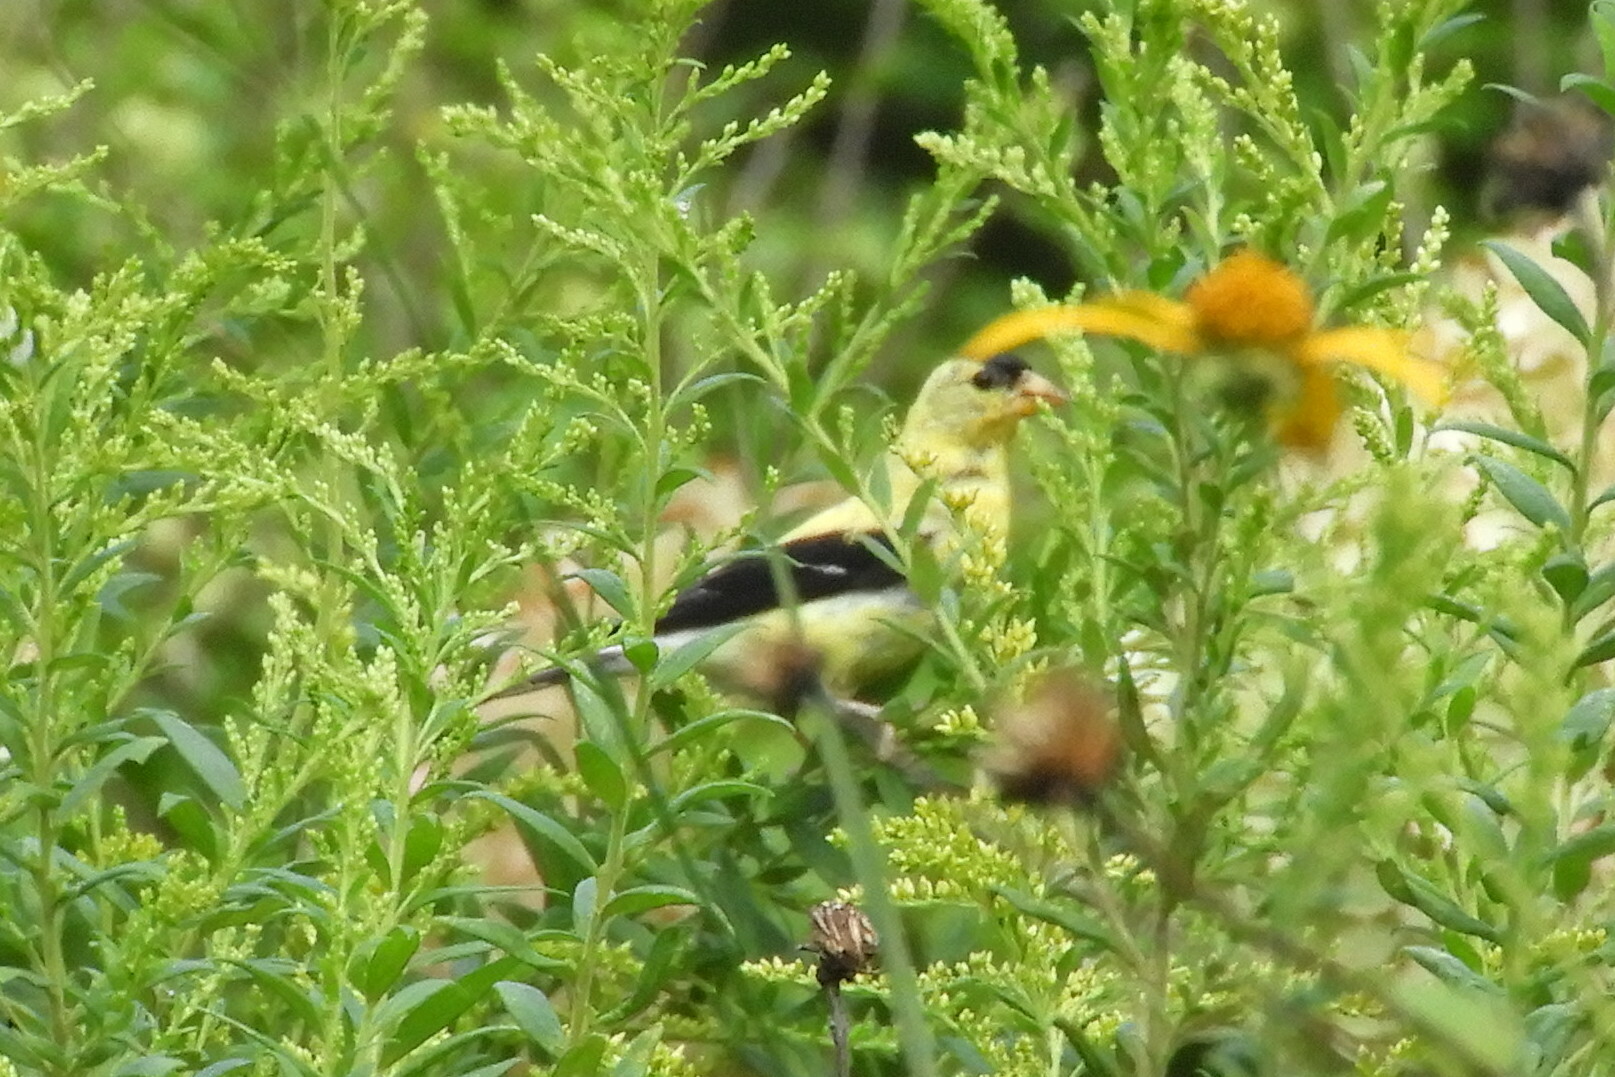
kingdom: Animalia
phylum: Chordata
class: Aves
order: Passeriformes
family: Fringillidae
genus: Spinus
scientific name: Spinus tristis
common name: American goldfinch
